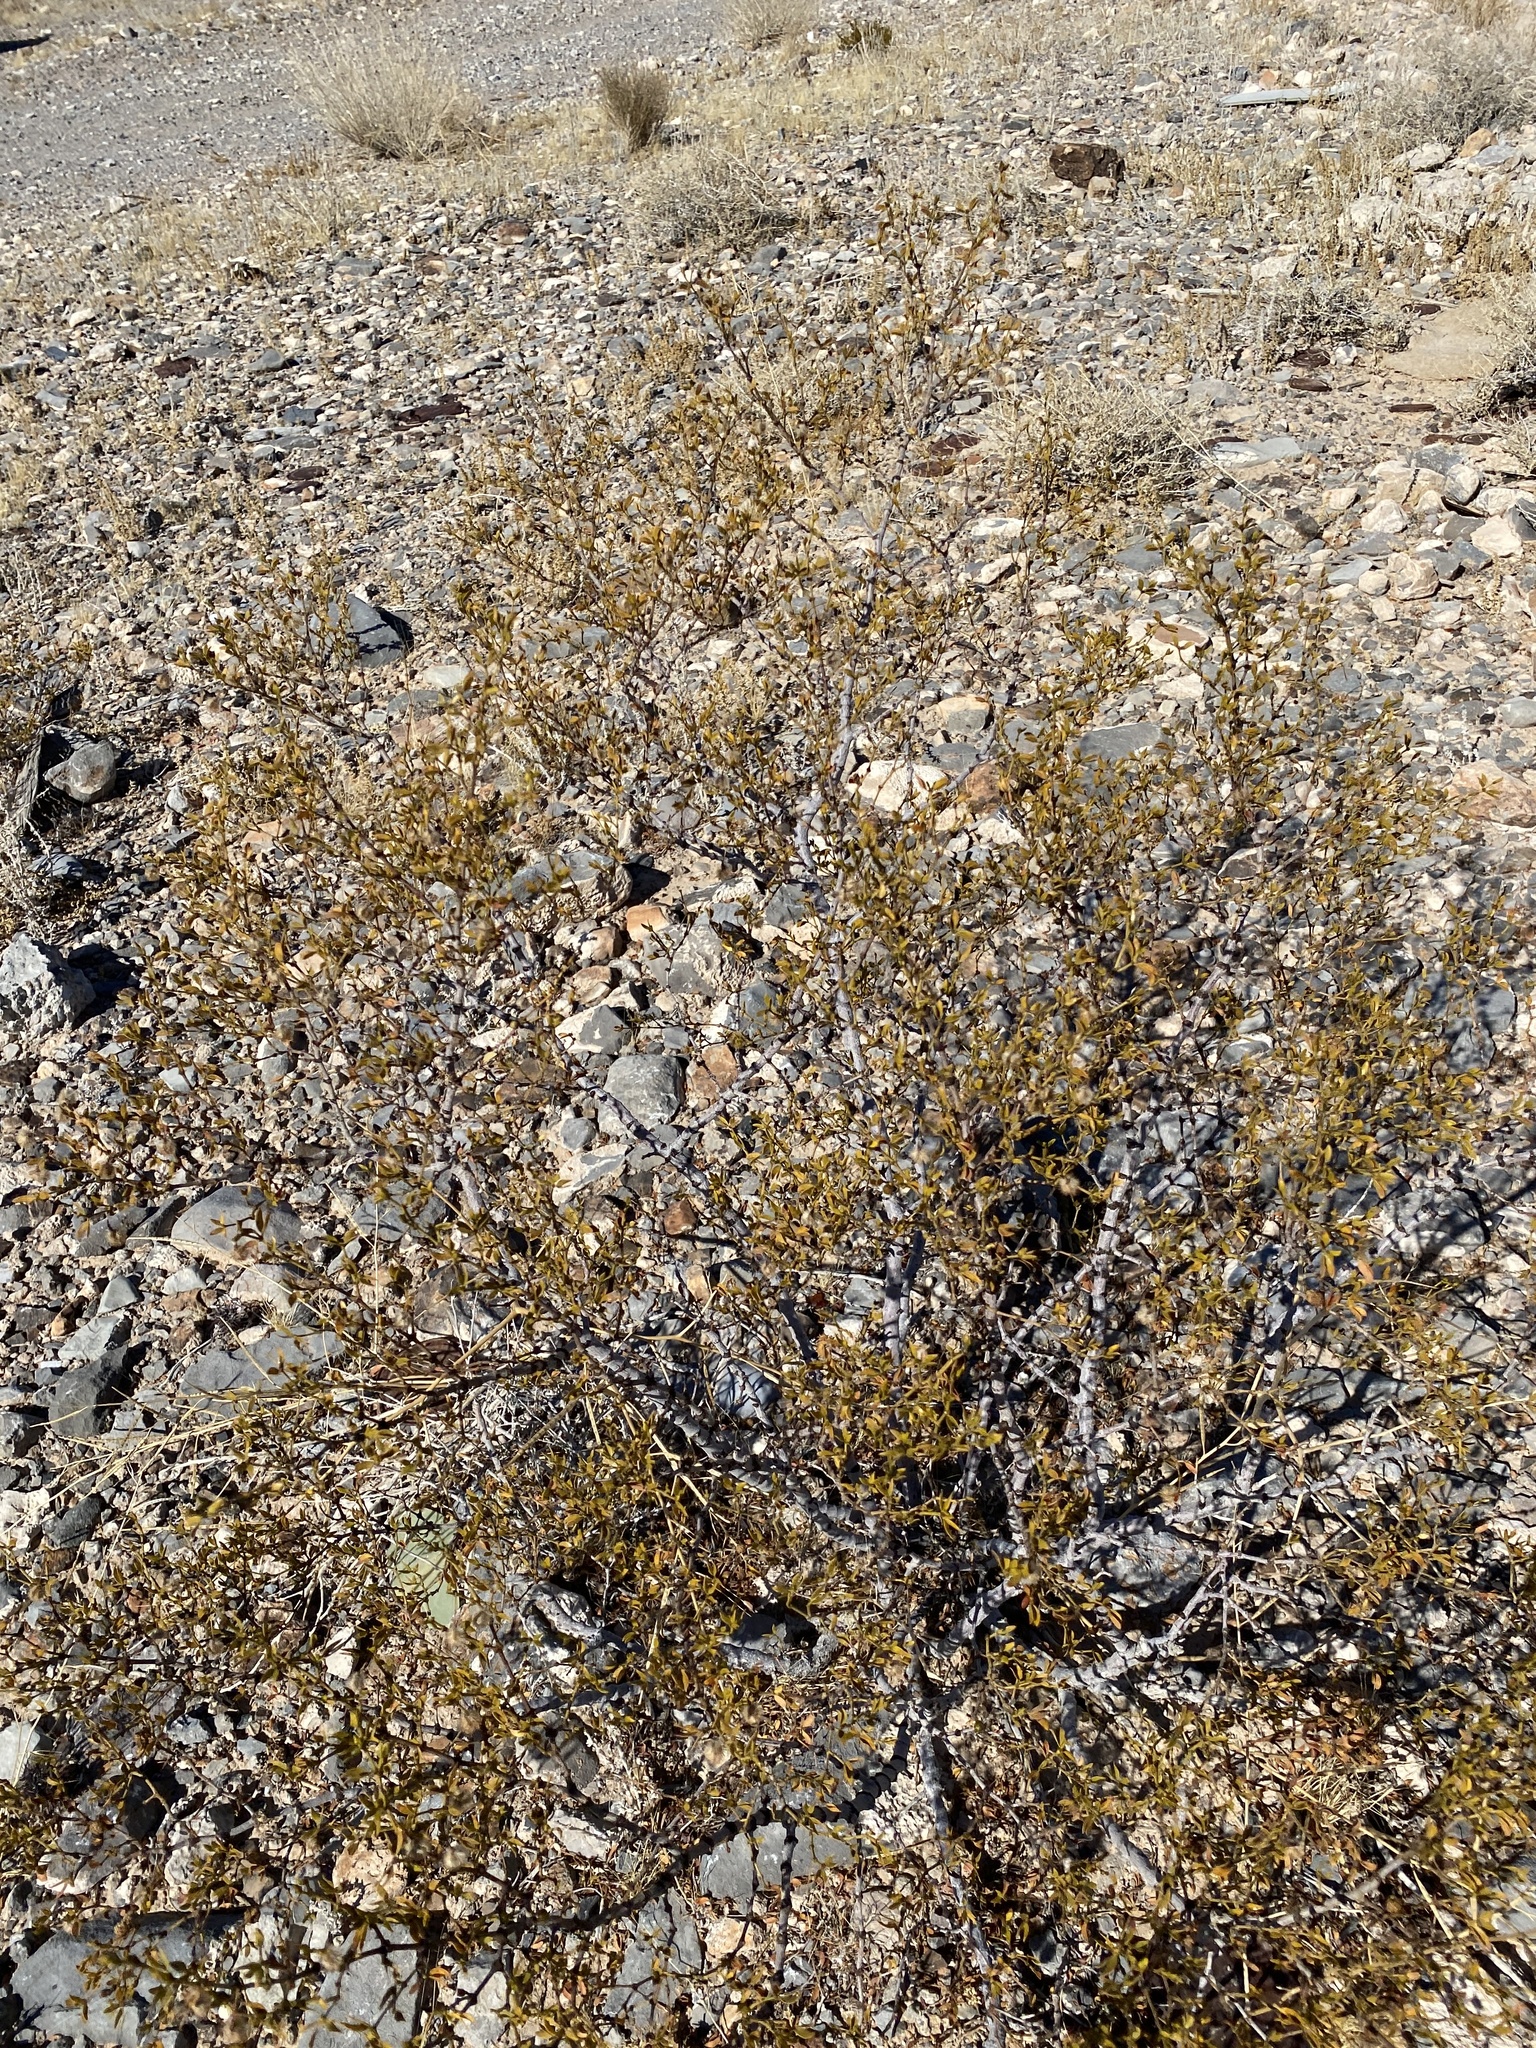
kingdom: Plantae
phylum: Tracheophyta
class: Magnoliopsida
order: Zygophyllales
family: Zygophyllaceae
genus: Larrea
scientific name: Larrea tridentata
